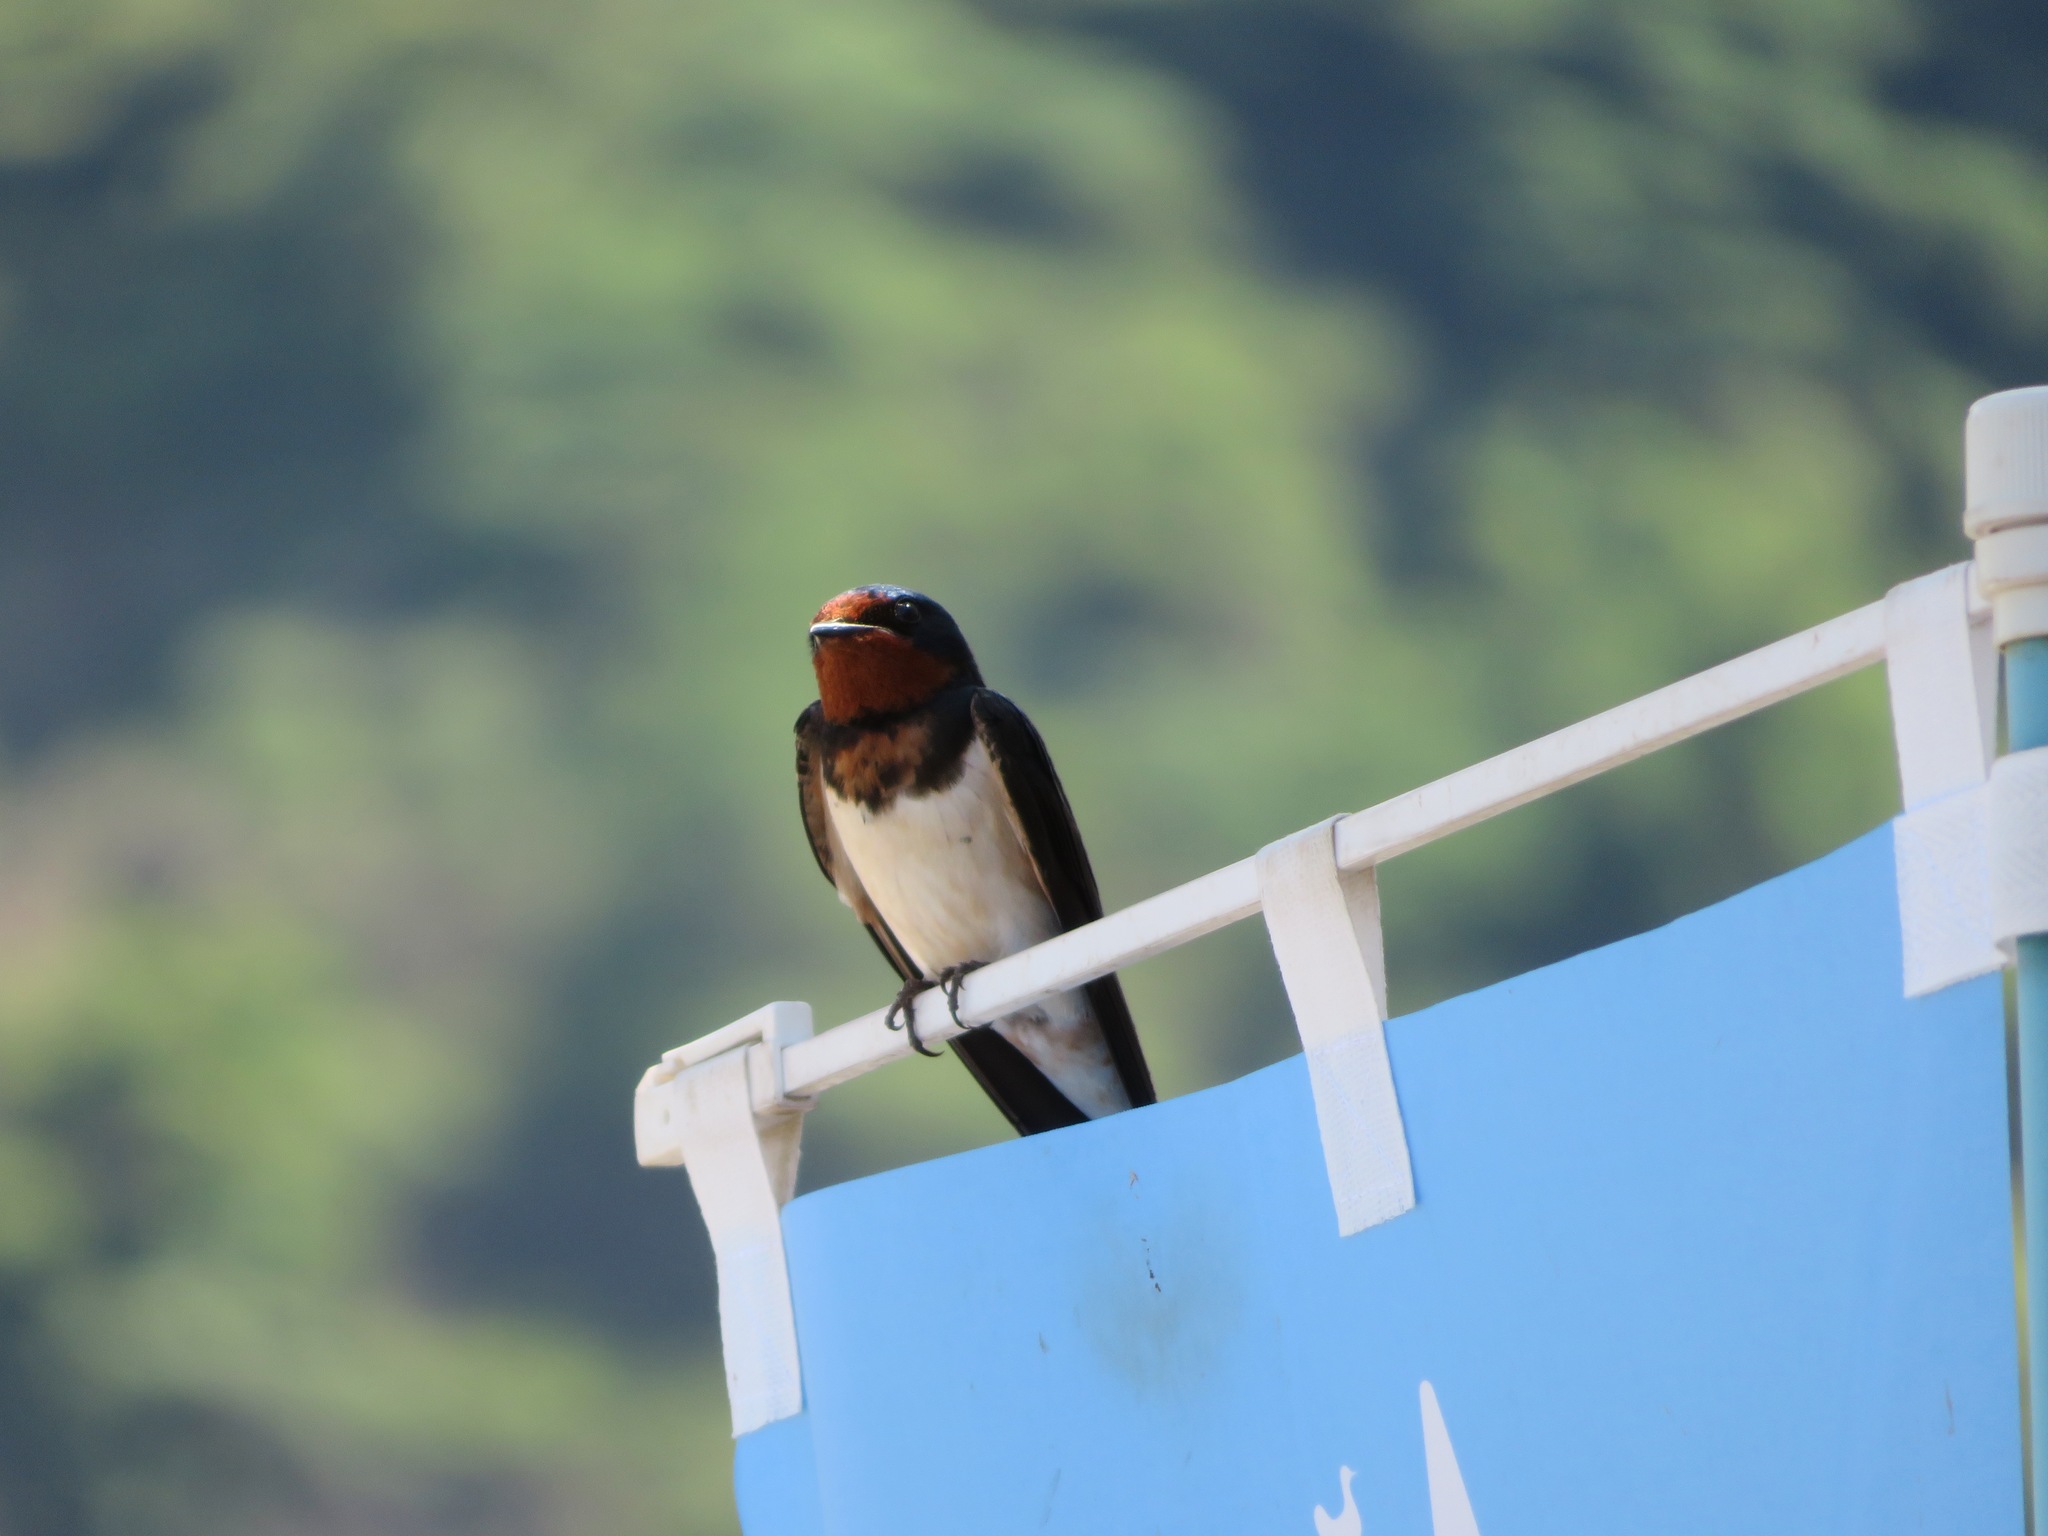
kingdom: Animalia
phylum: Chordata
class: Aves
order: Passeriformes
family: Hirundinidae
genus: Hirundo
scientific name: Hirundo rustica
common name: Barn swallow
